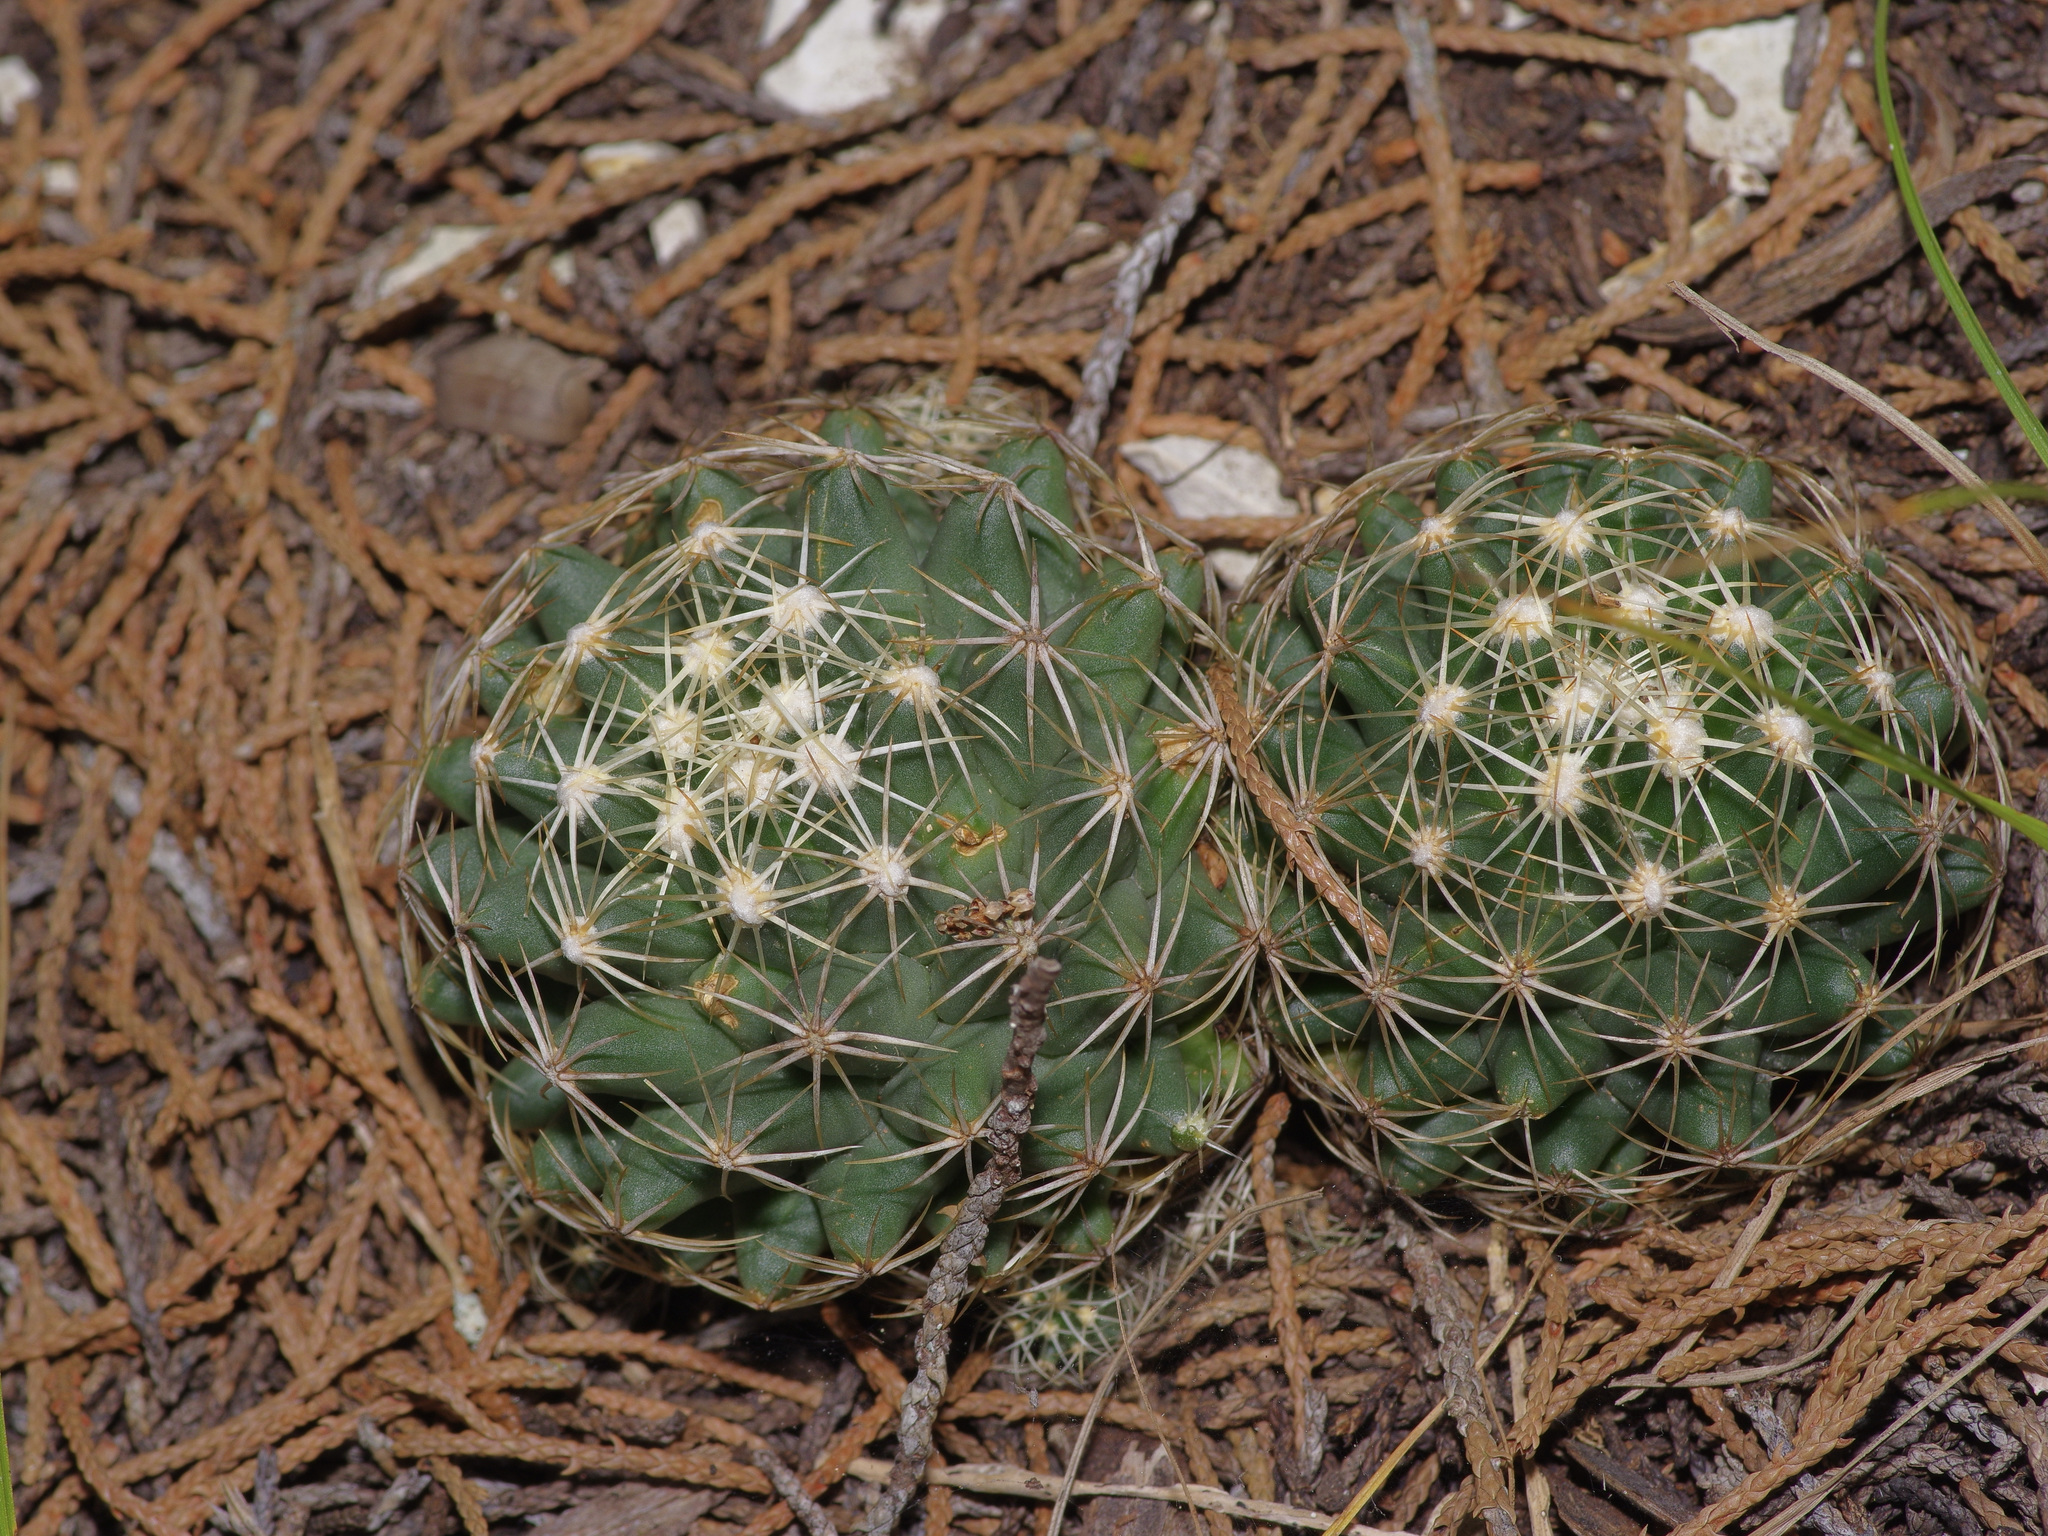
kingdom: Plantae
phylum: Tracheophyta
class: Magnoliopsida
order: Caryophyllales
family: Cactaceae
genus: Coryphantha
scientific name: Coryphantha sulcata
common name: Finger cactus
